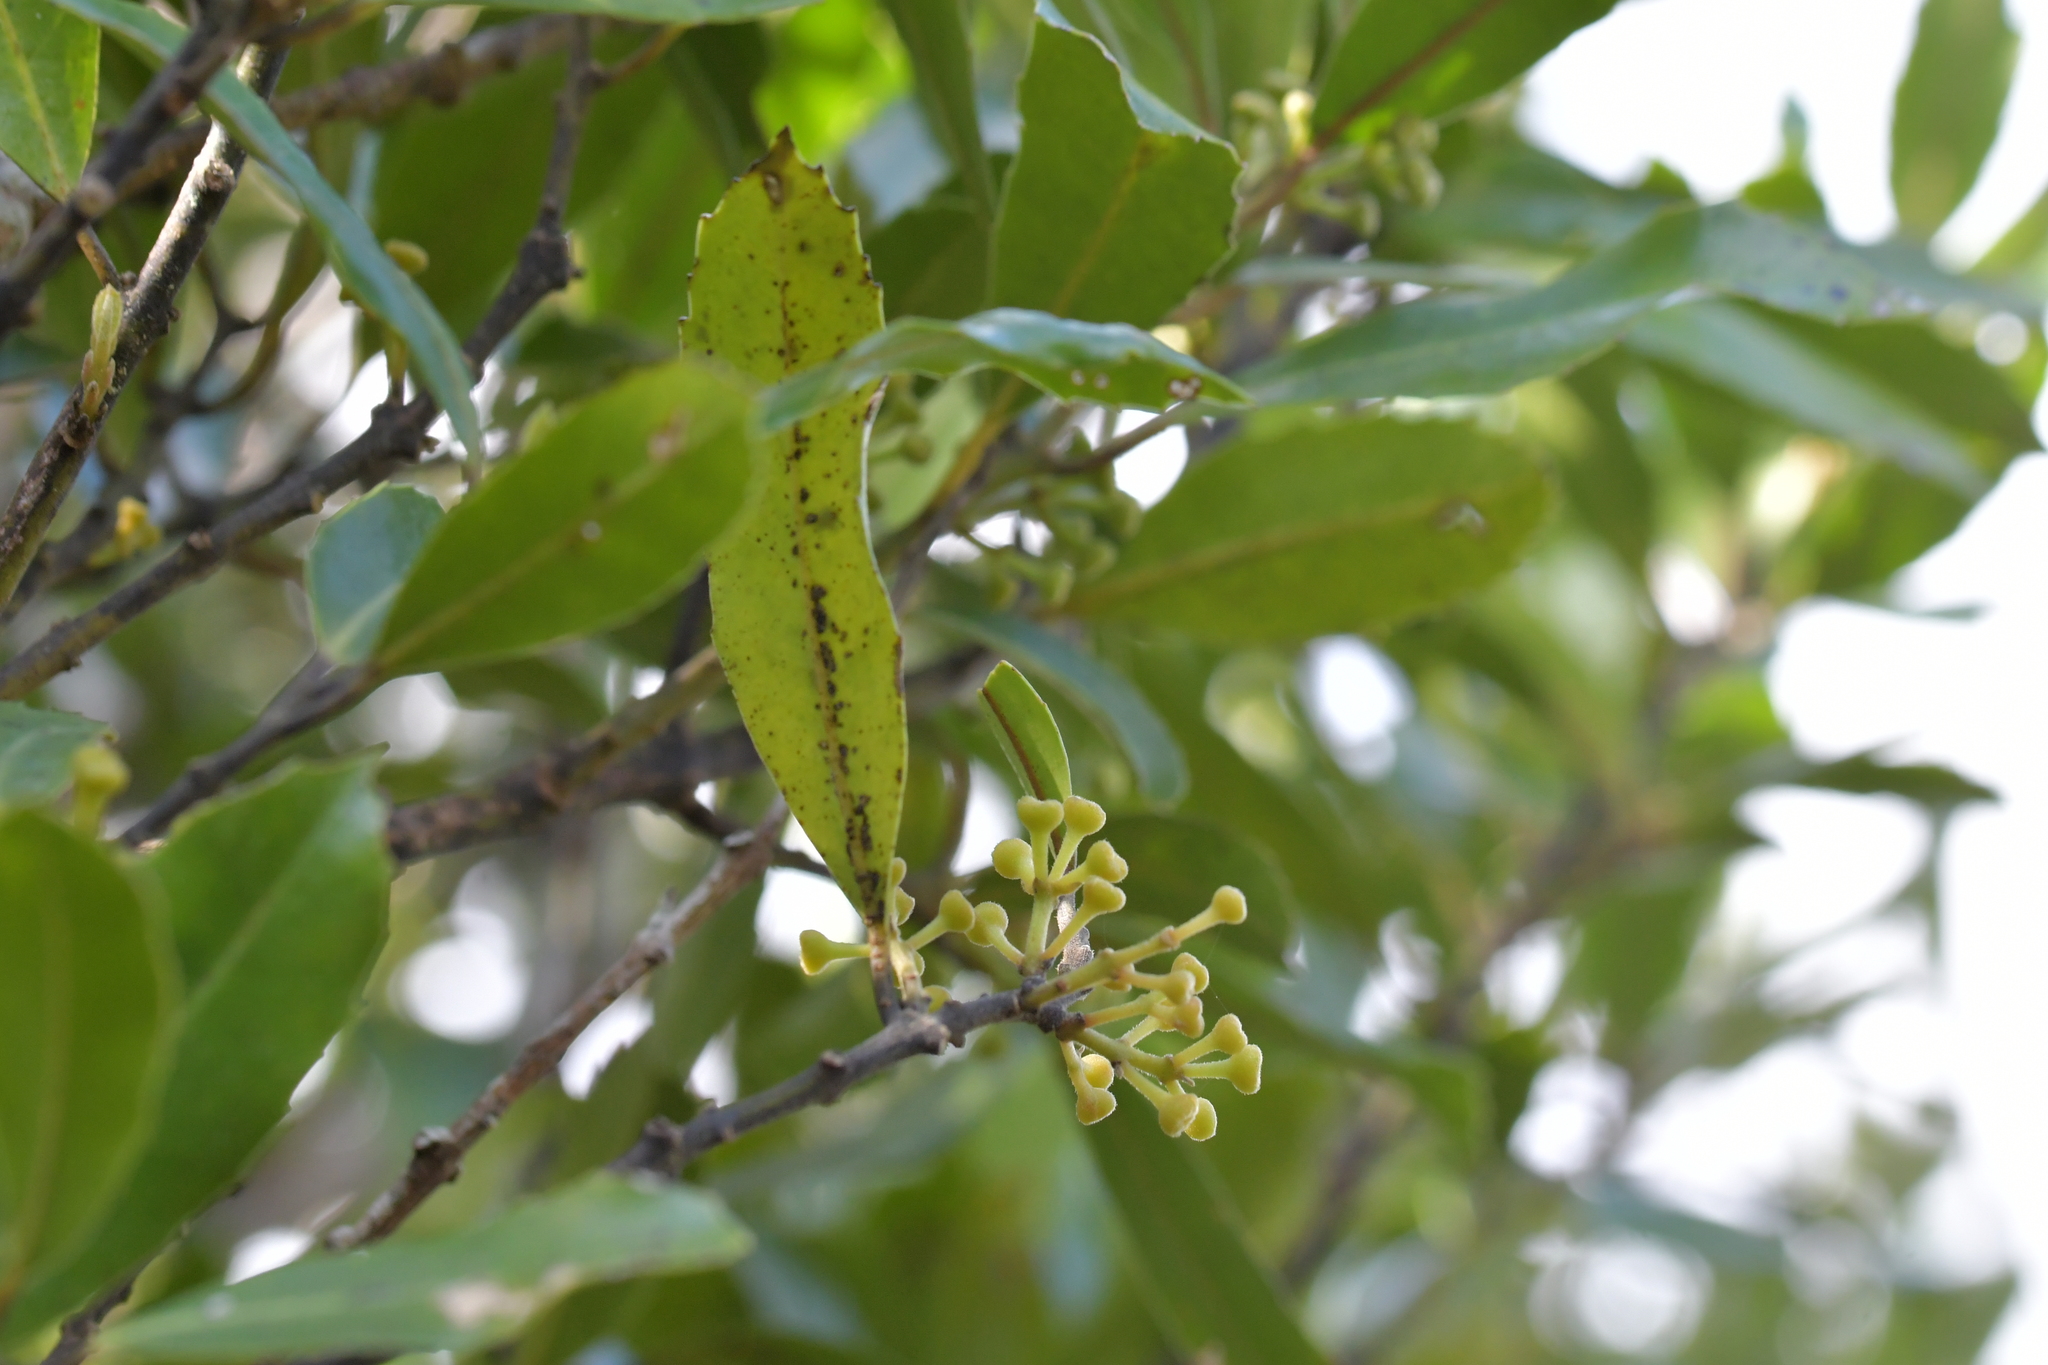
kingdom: Plantae
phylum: Tracheophyta
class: Magnoliopsida
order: Laurales
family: Monimiaceae
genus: Hedycarya
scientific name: Hedycarya arborea
